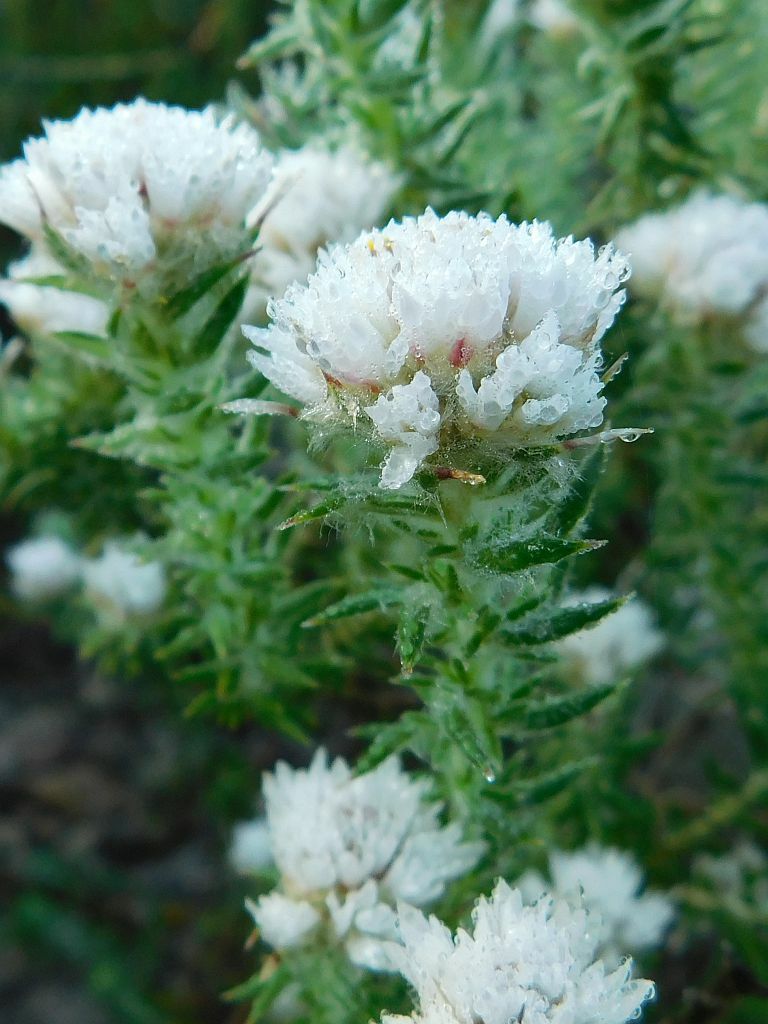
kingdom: Plantae
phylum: Tracheophyta
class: Magnoliopsida
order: Asterales
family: Asteraceae
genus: Metalasia
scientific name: Metalasia inversa
